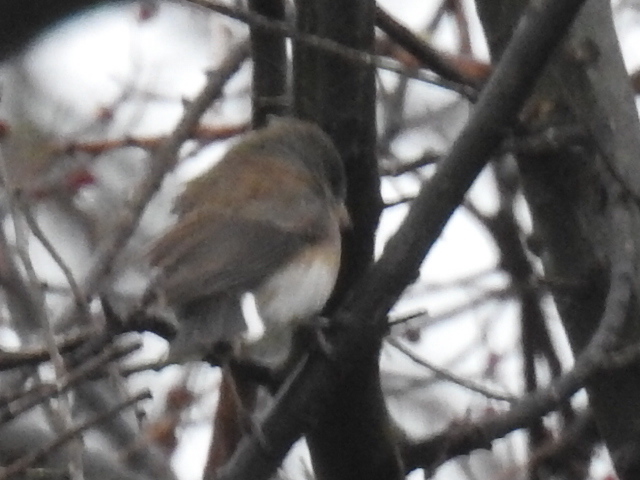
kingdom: Animalia
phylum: Chordata
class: Aves
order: Passeriformes
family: Passerellidae
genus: Junco
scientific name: Junco hyemalis
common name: Dark-eyed junco
